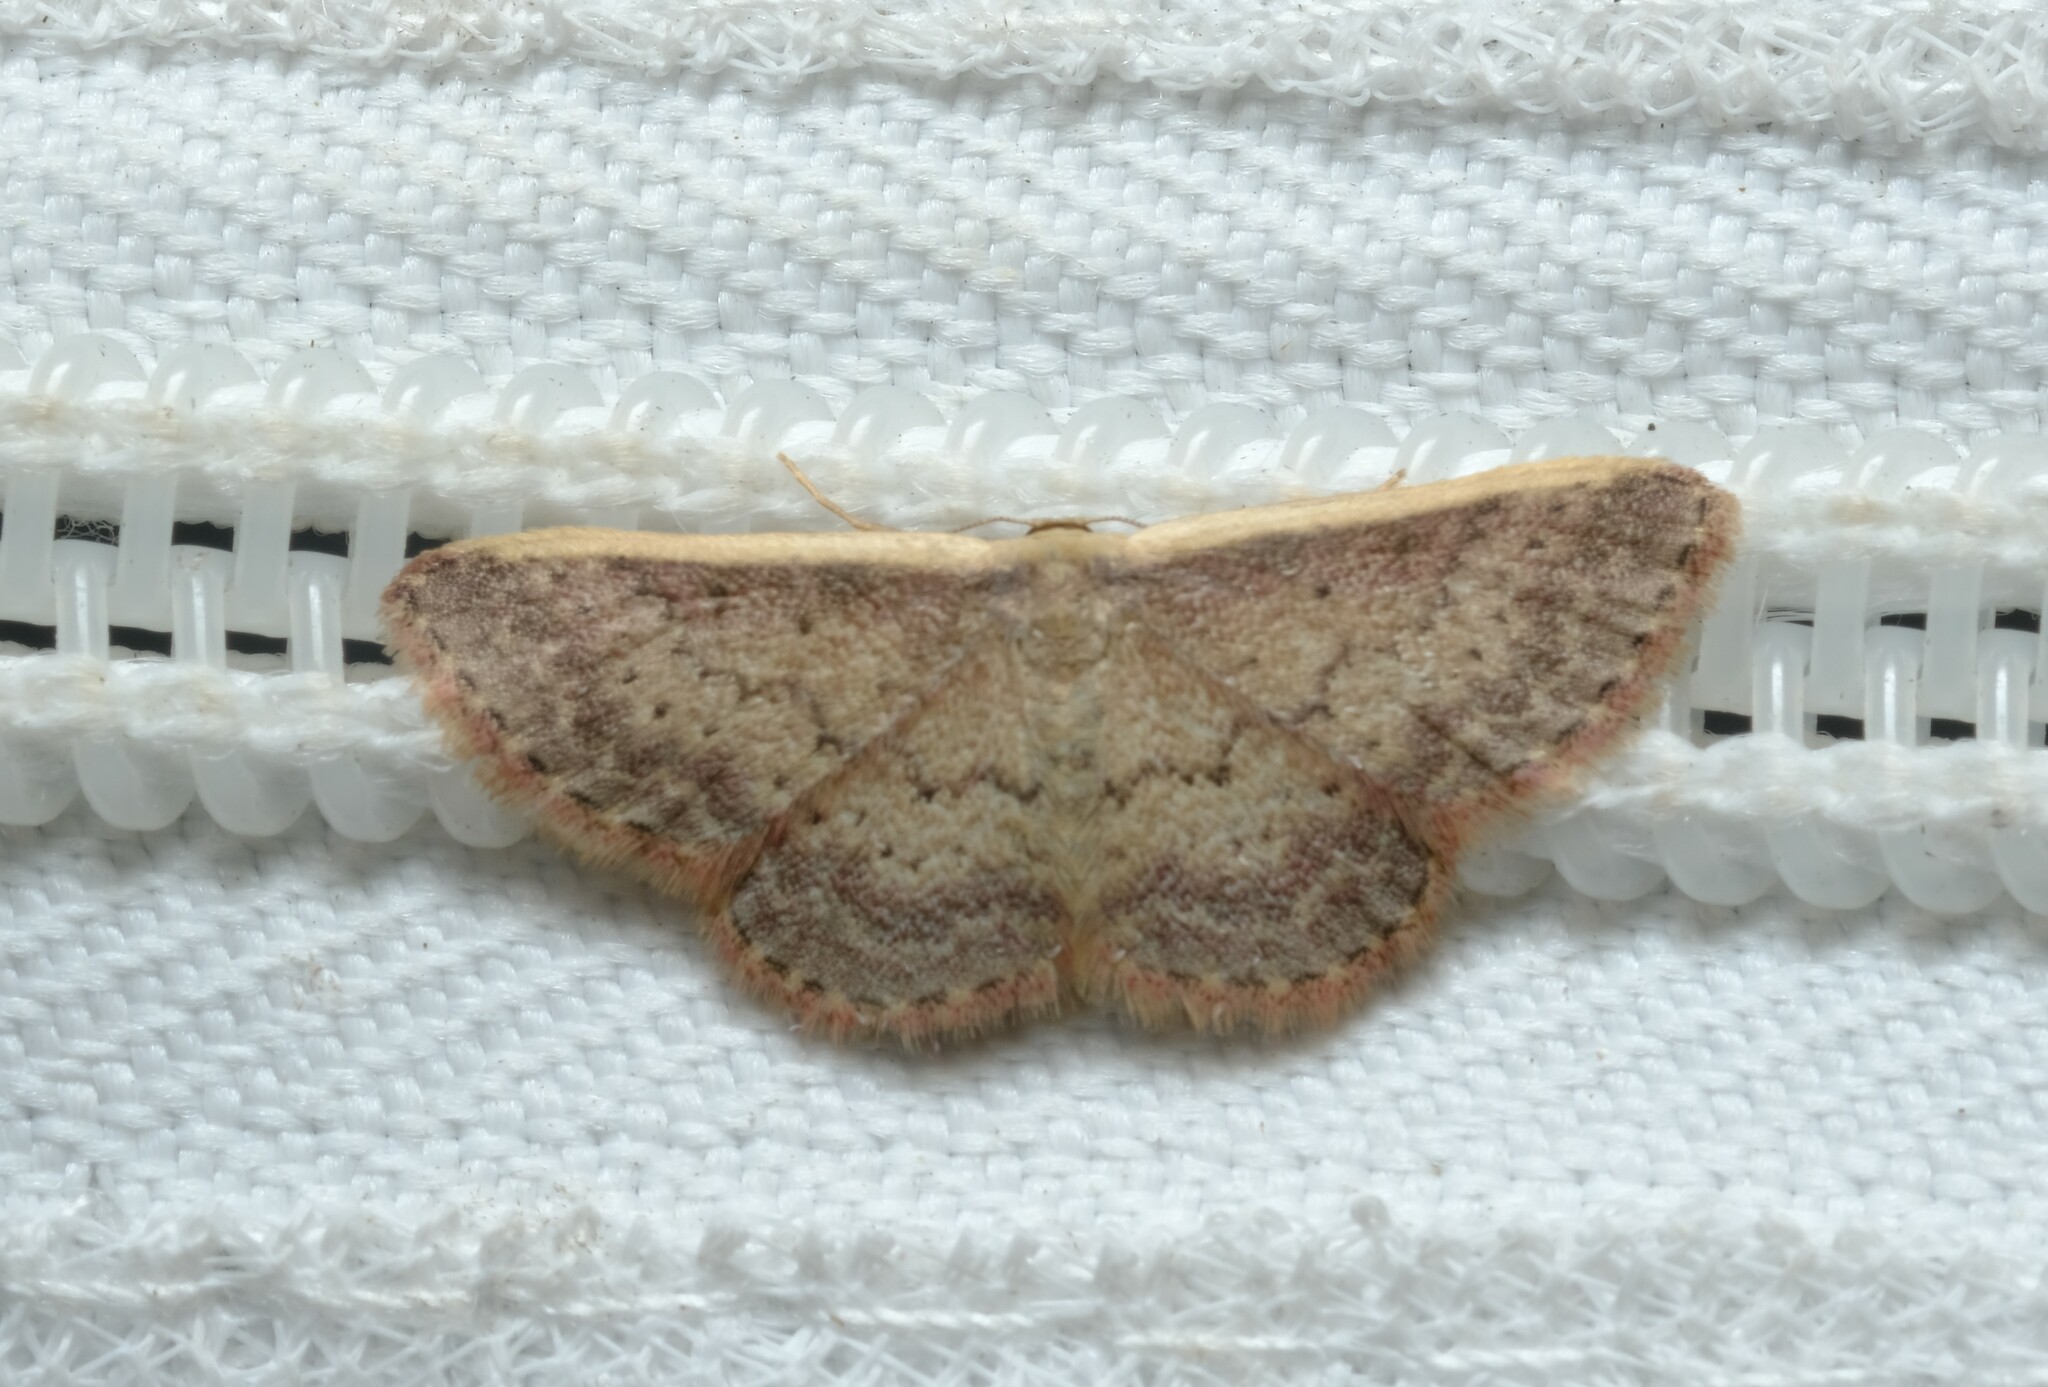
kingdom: Animalia
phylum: Arthropoda
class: Insecta
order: Lepidoptera
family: Geometridae
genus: Idaea
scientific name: Idaea nephelota
